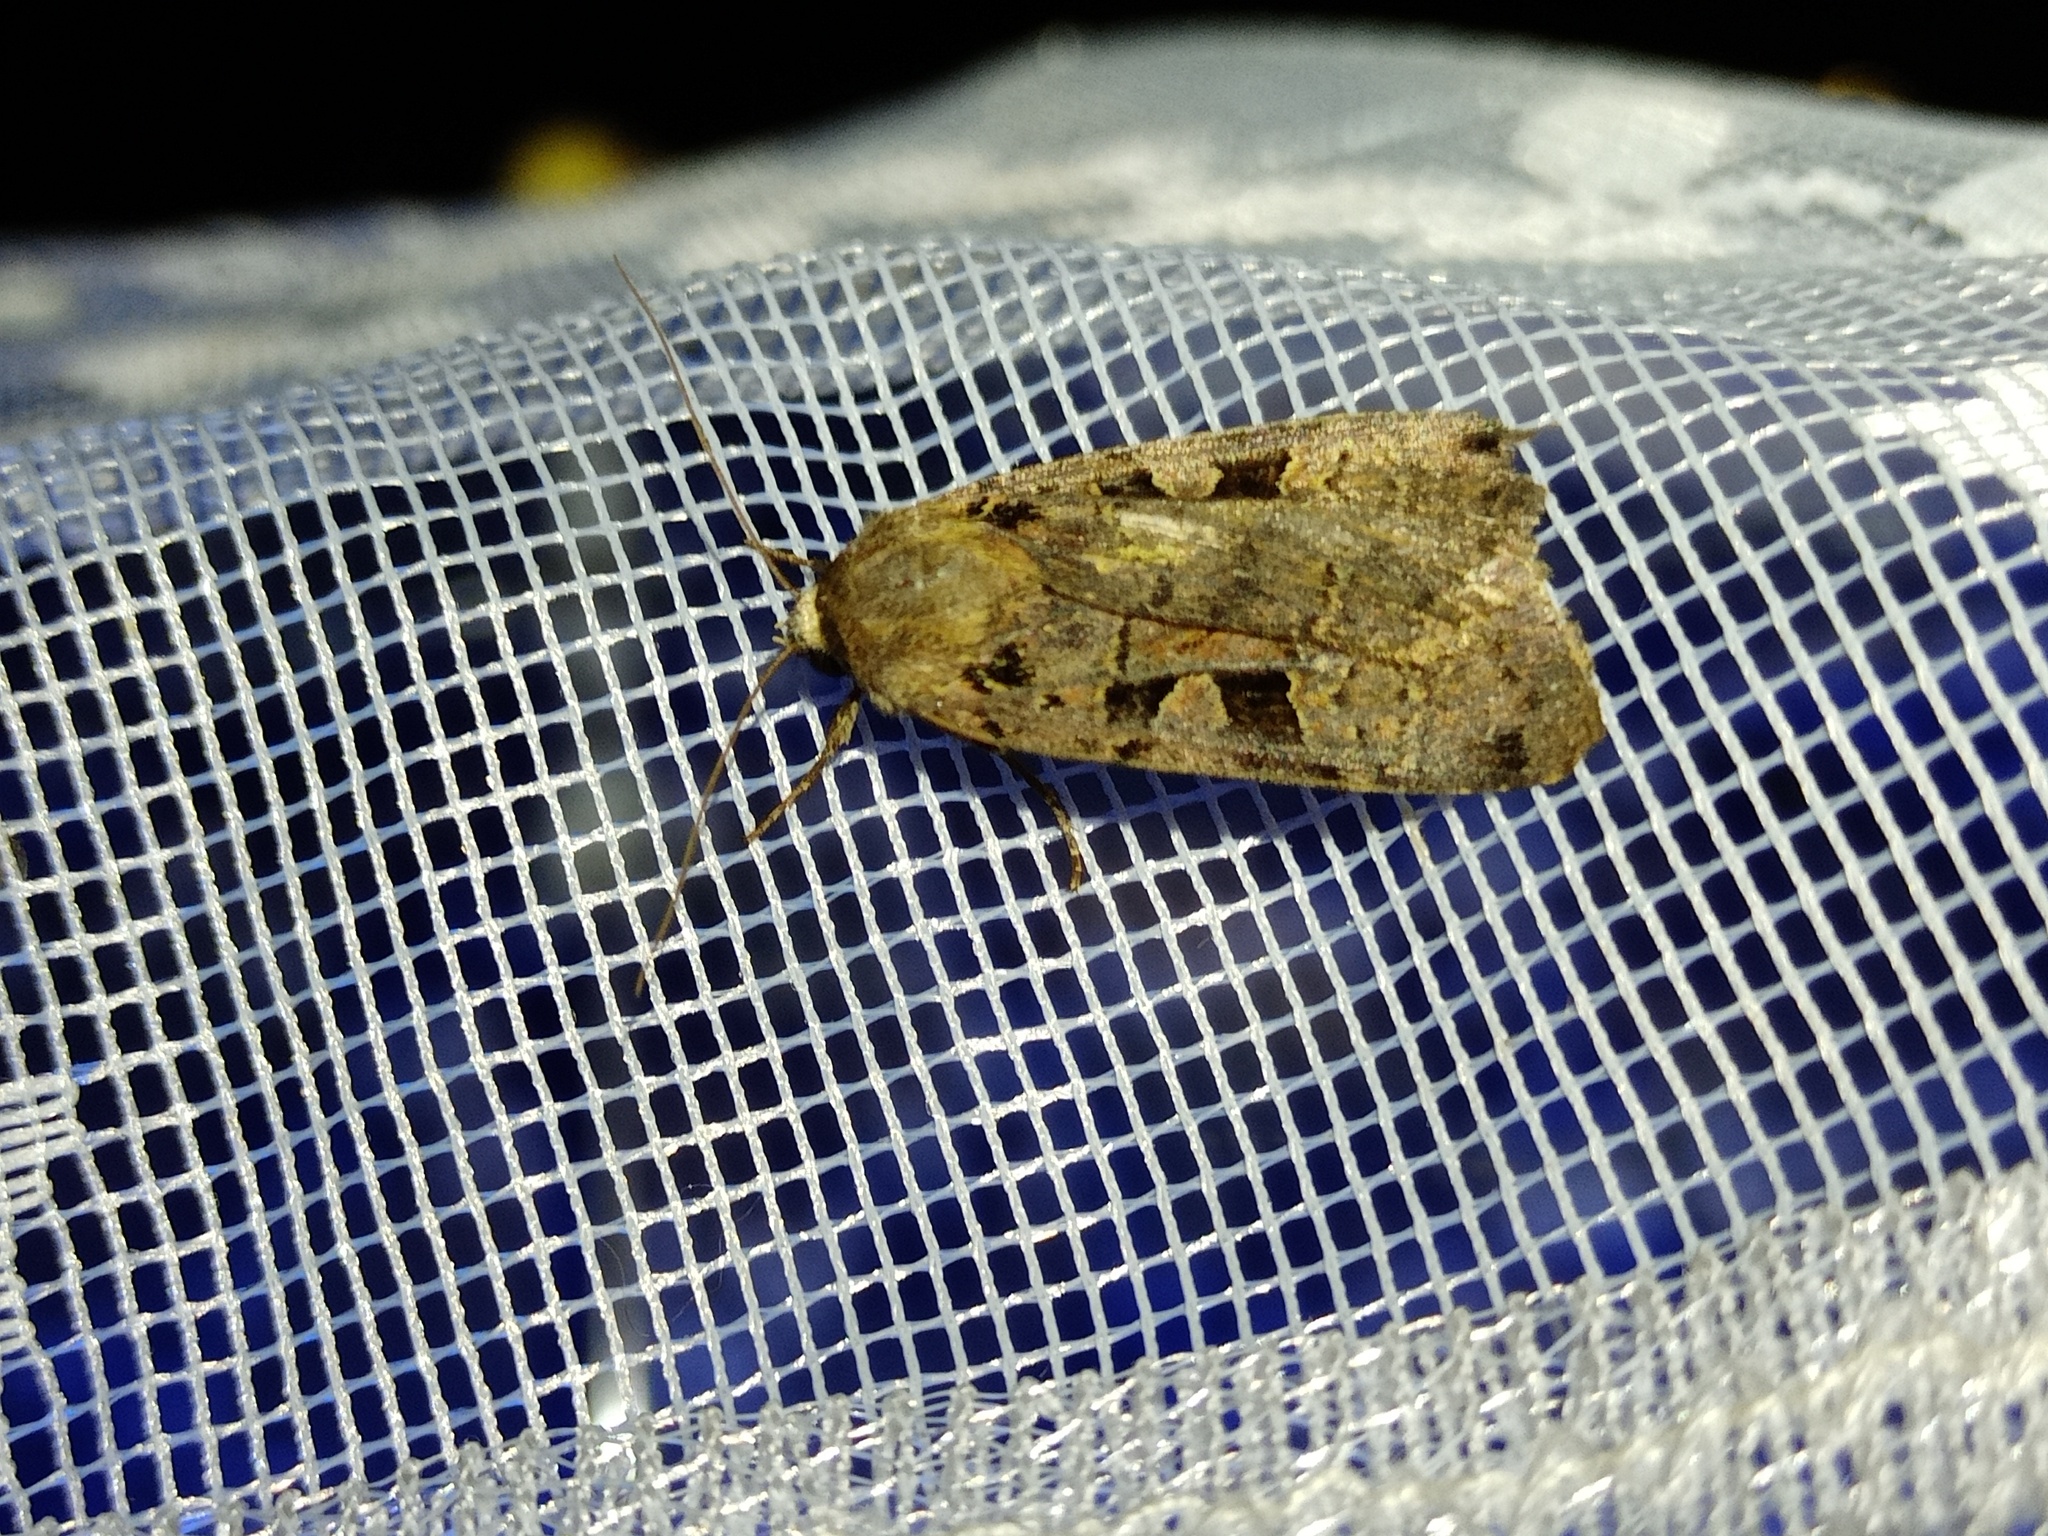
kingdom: Animalia
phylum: Arthropoda
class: Insecta
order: Lepidoptera
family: Noctuidae
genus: Xestia
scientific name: Xestia triangulum
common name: Double square-spot
